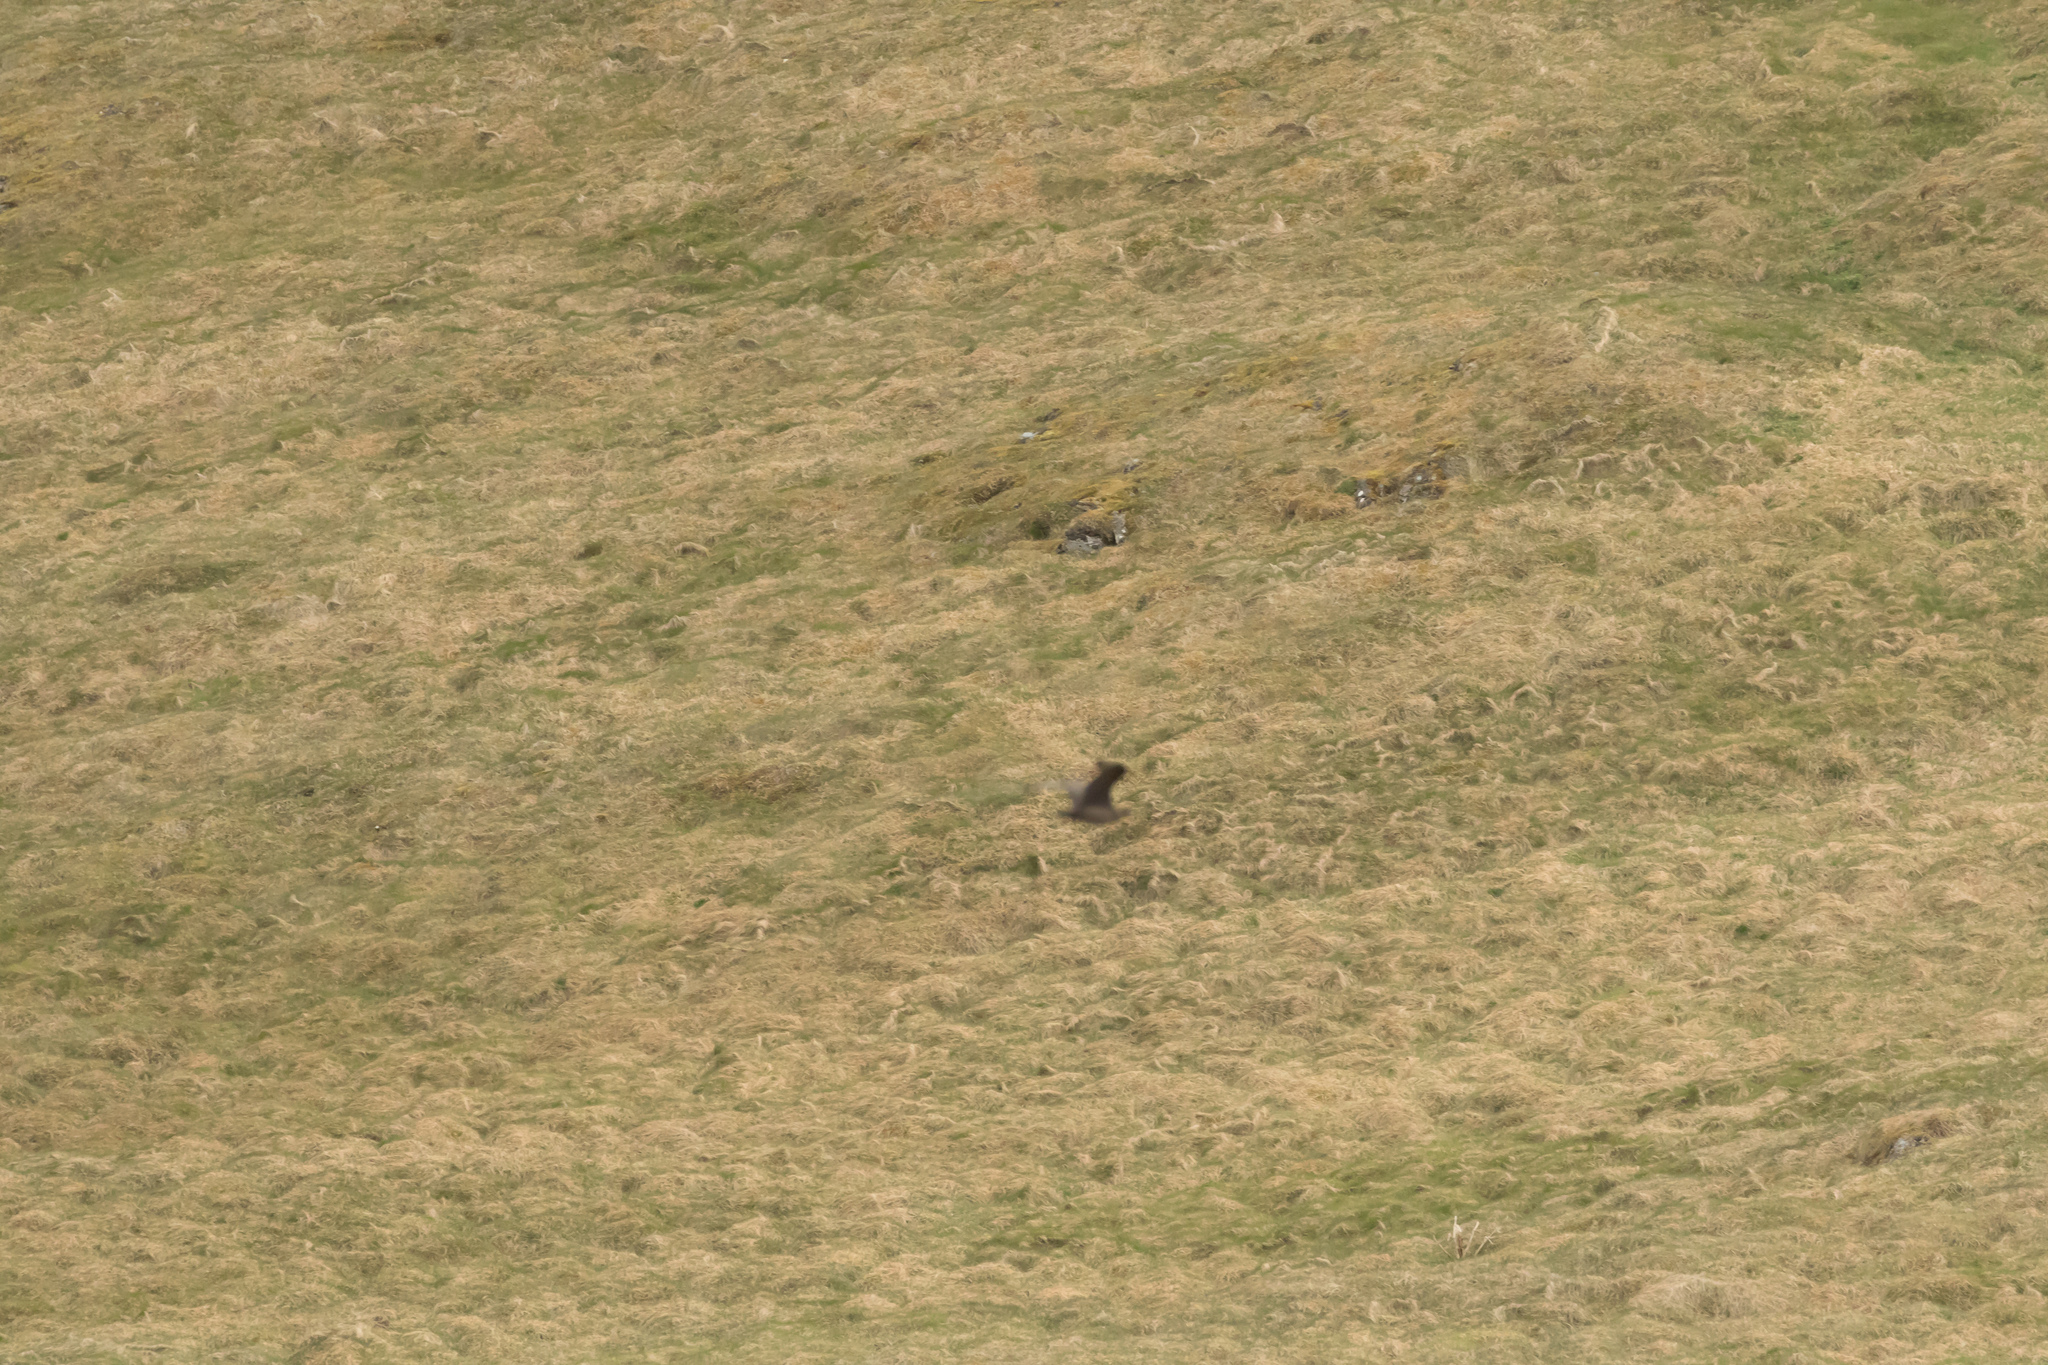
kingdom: Animalia
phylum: Chordata
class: Aves
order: Charadriiformes
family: Stercorariidae
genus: Stercorarius
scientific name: Stercorarius skua
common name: Great skua
